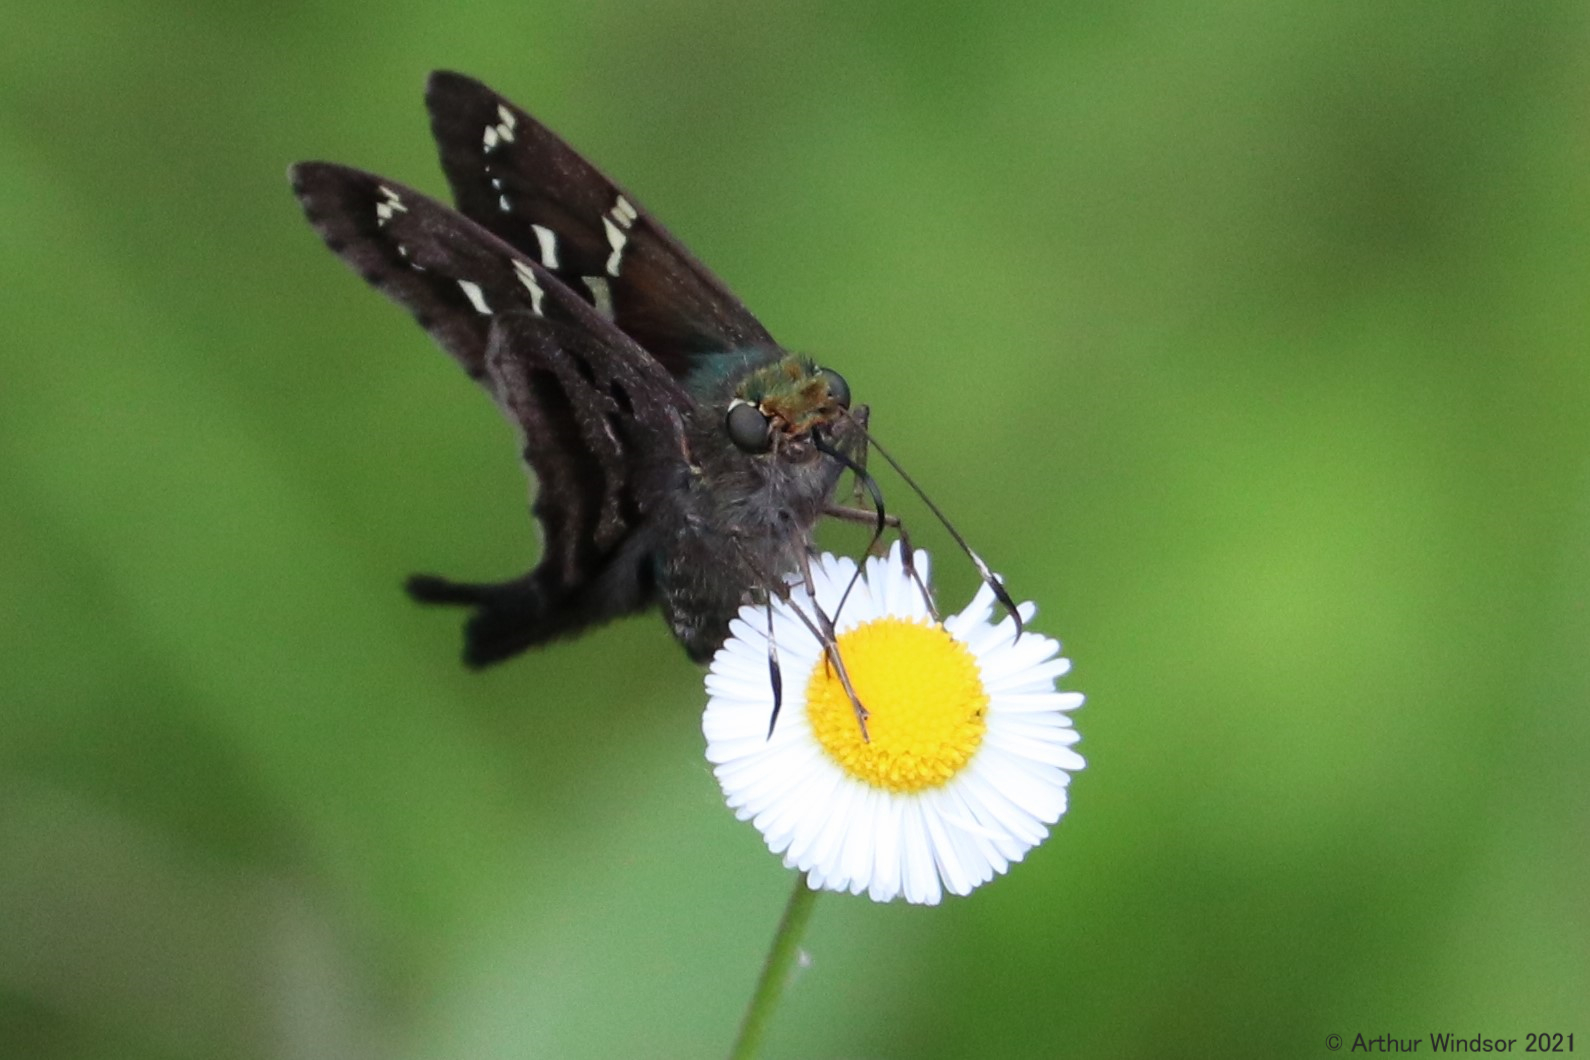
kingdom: Animalia
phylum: Arthropoda
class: Insecta
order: Lepidoptera
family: Hesperiidae
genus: Urbanus
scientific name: Urbanus proteus
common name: Long-tailed skipper
